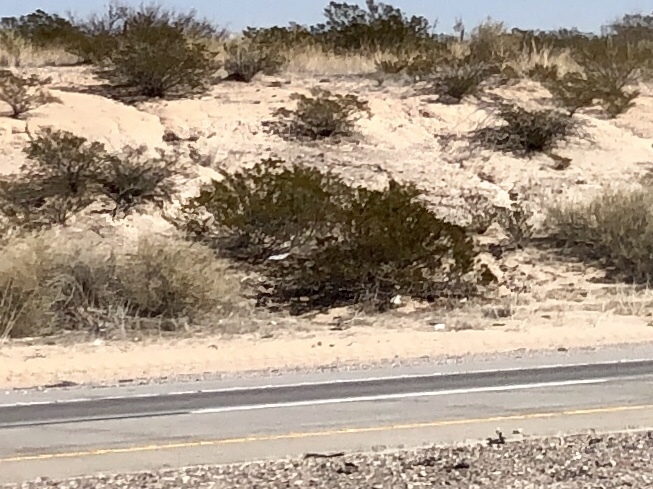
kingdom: Plantae
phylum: Tracheophyta
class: Magnoliopsida
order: Zygophyllales
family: Zygophyllaceae
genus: Larrea
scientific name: Larrea tridentata
